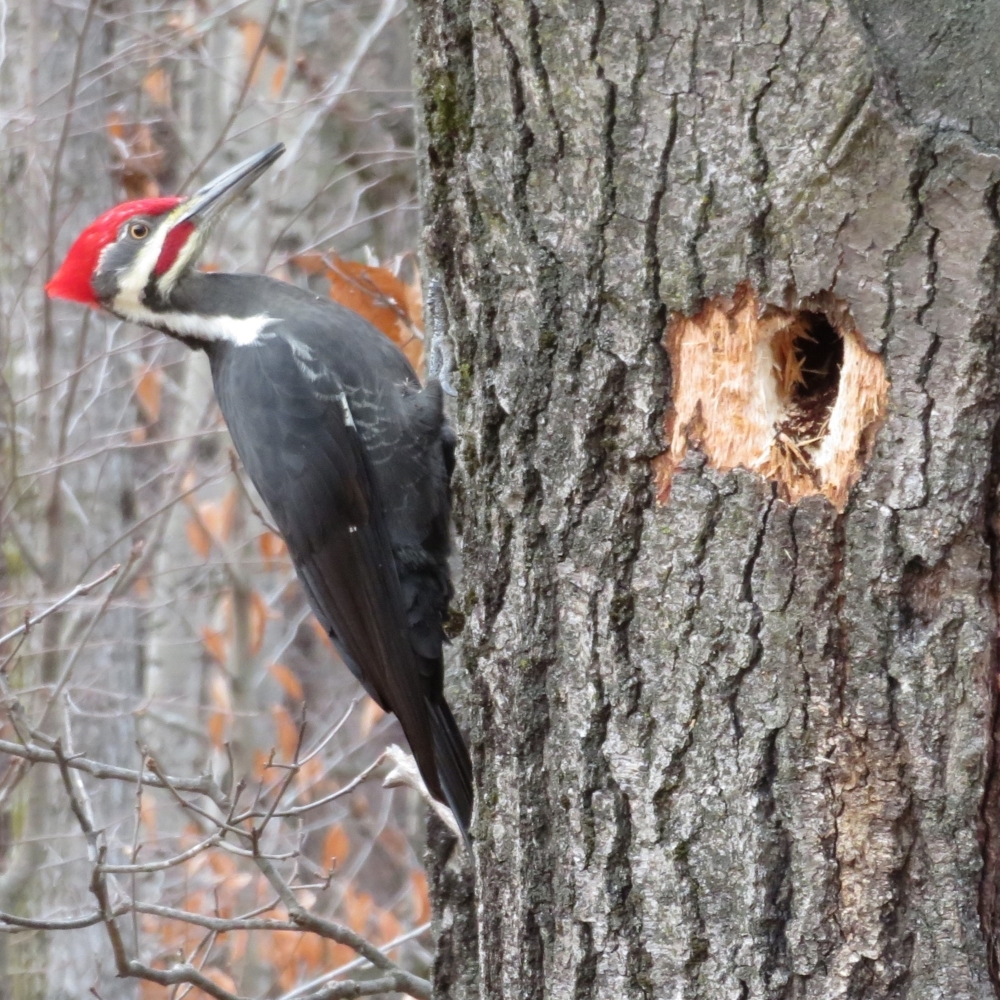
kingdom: Animalia
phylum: Chordata
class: Aves
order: Piciformes
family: Picidae
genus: Dryocopus
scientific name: Dryocopus pileatus
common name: Pileated woodpecker
